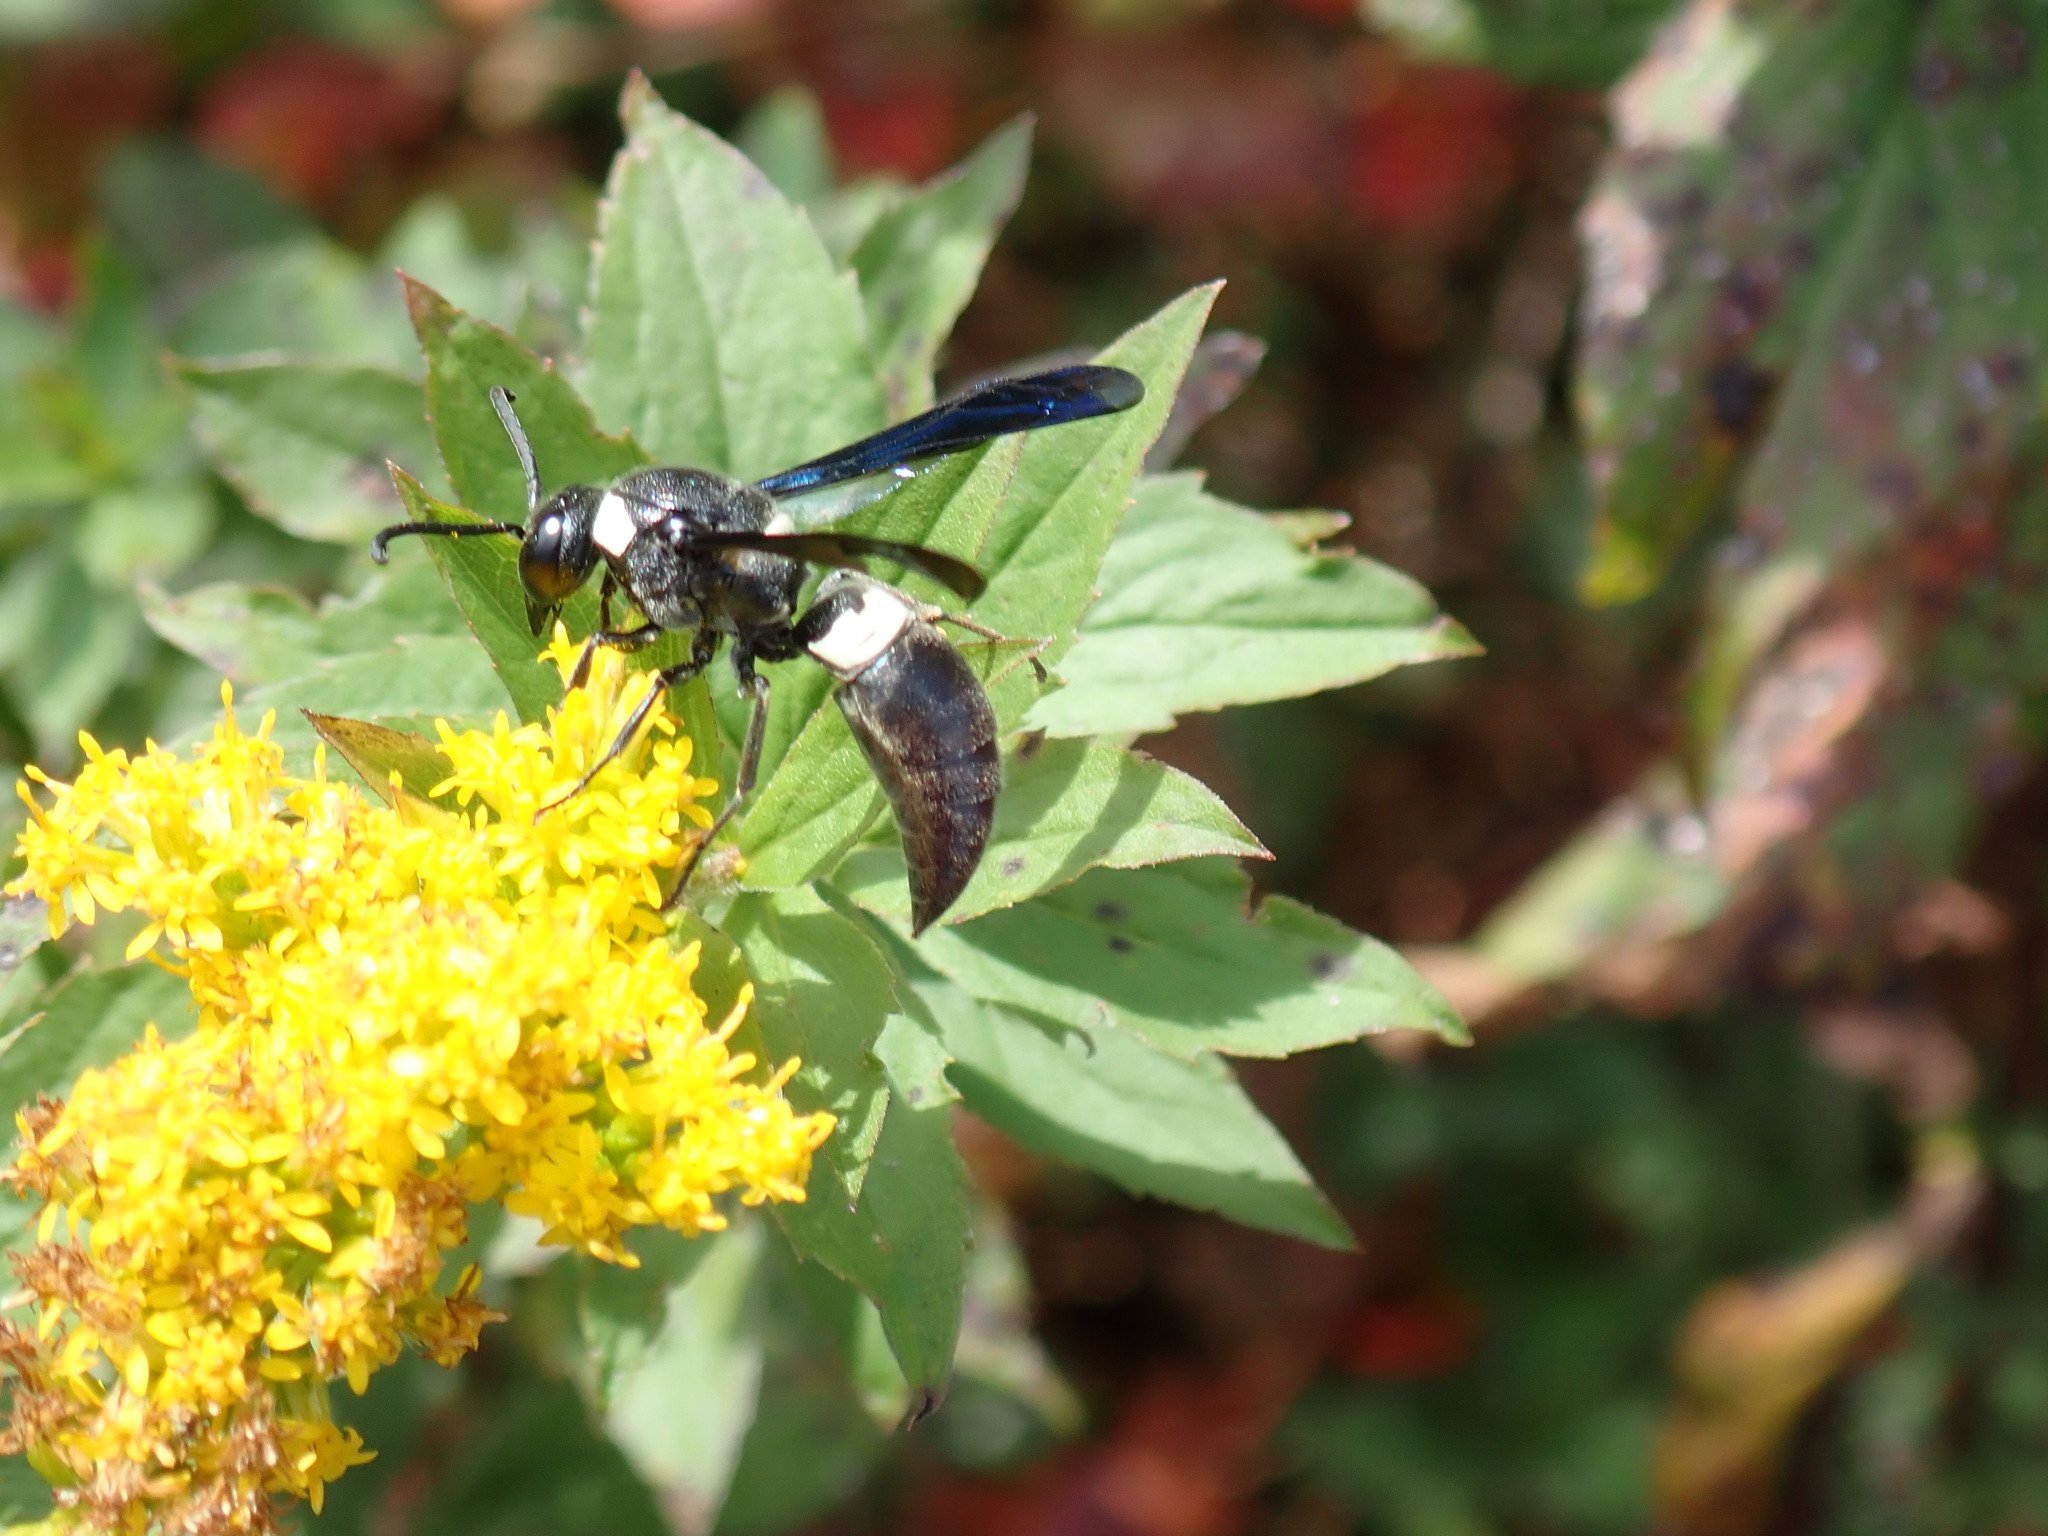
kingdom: Animalia
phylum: Arthropoda
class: Insecta
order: Hymenoptera
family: Eumenidae
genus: Monobia
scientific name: Monobia quadridens
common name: Four-toothed mason wasp
